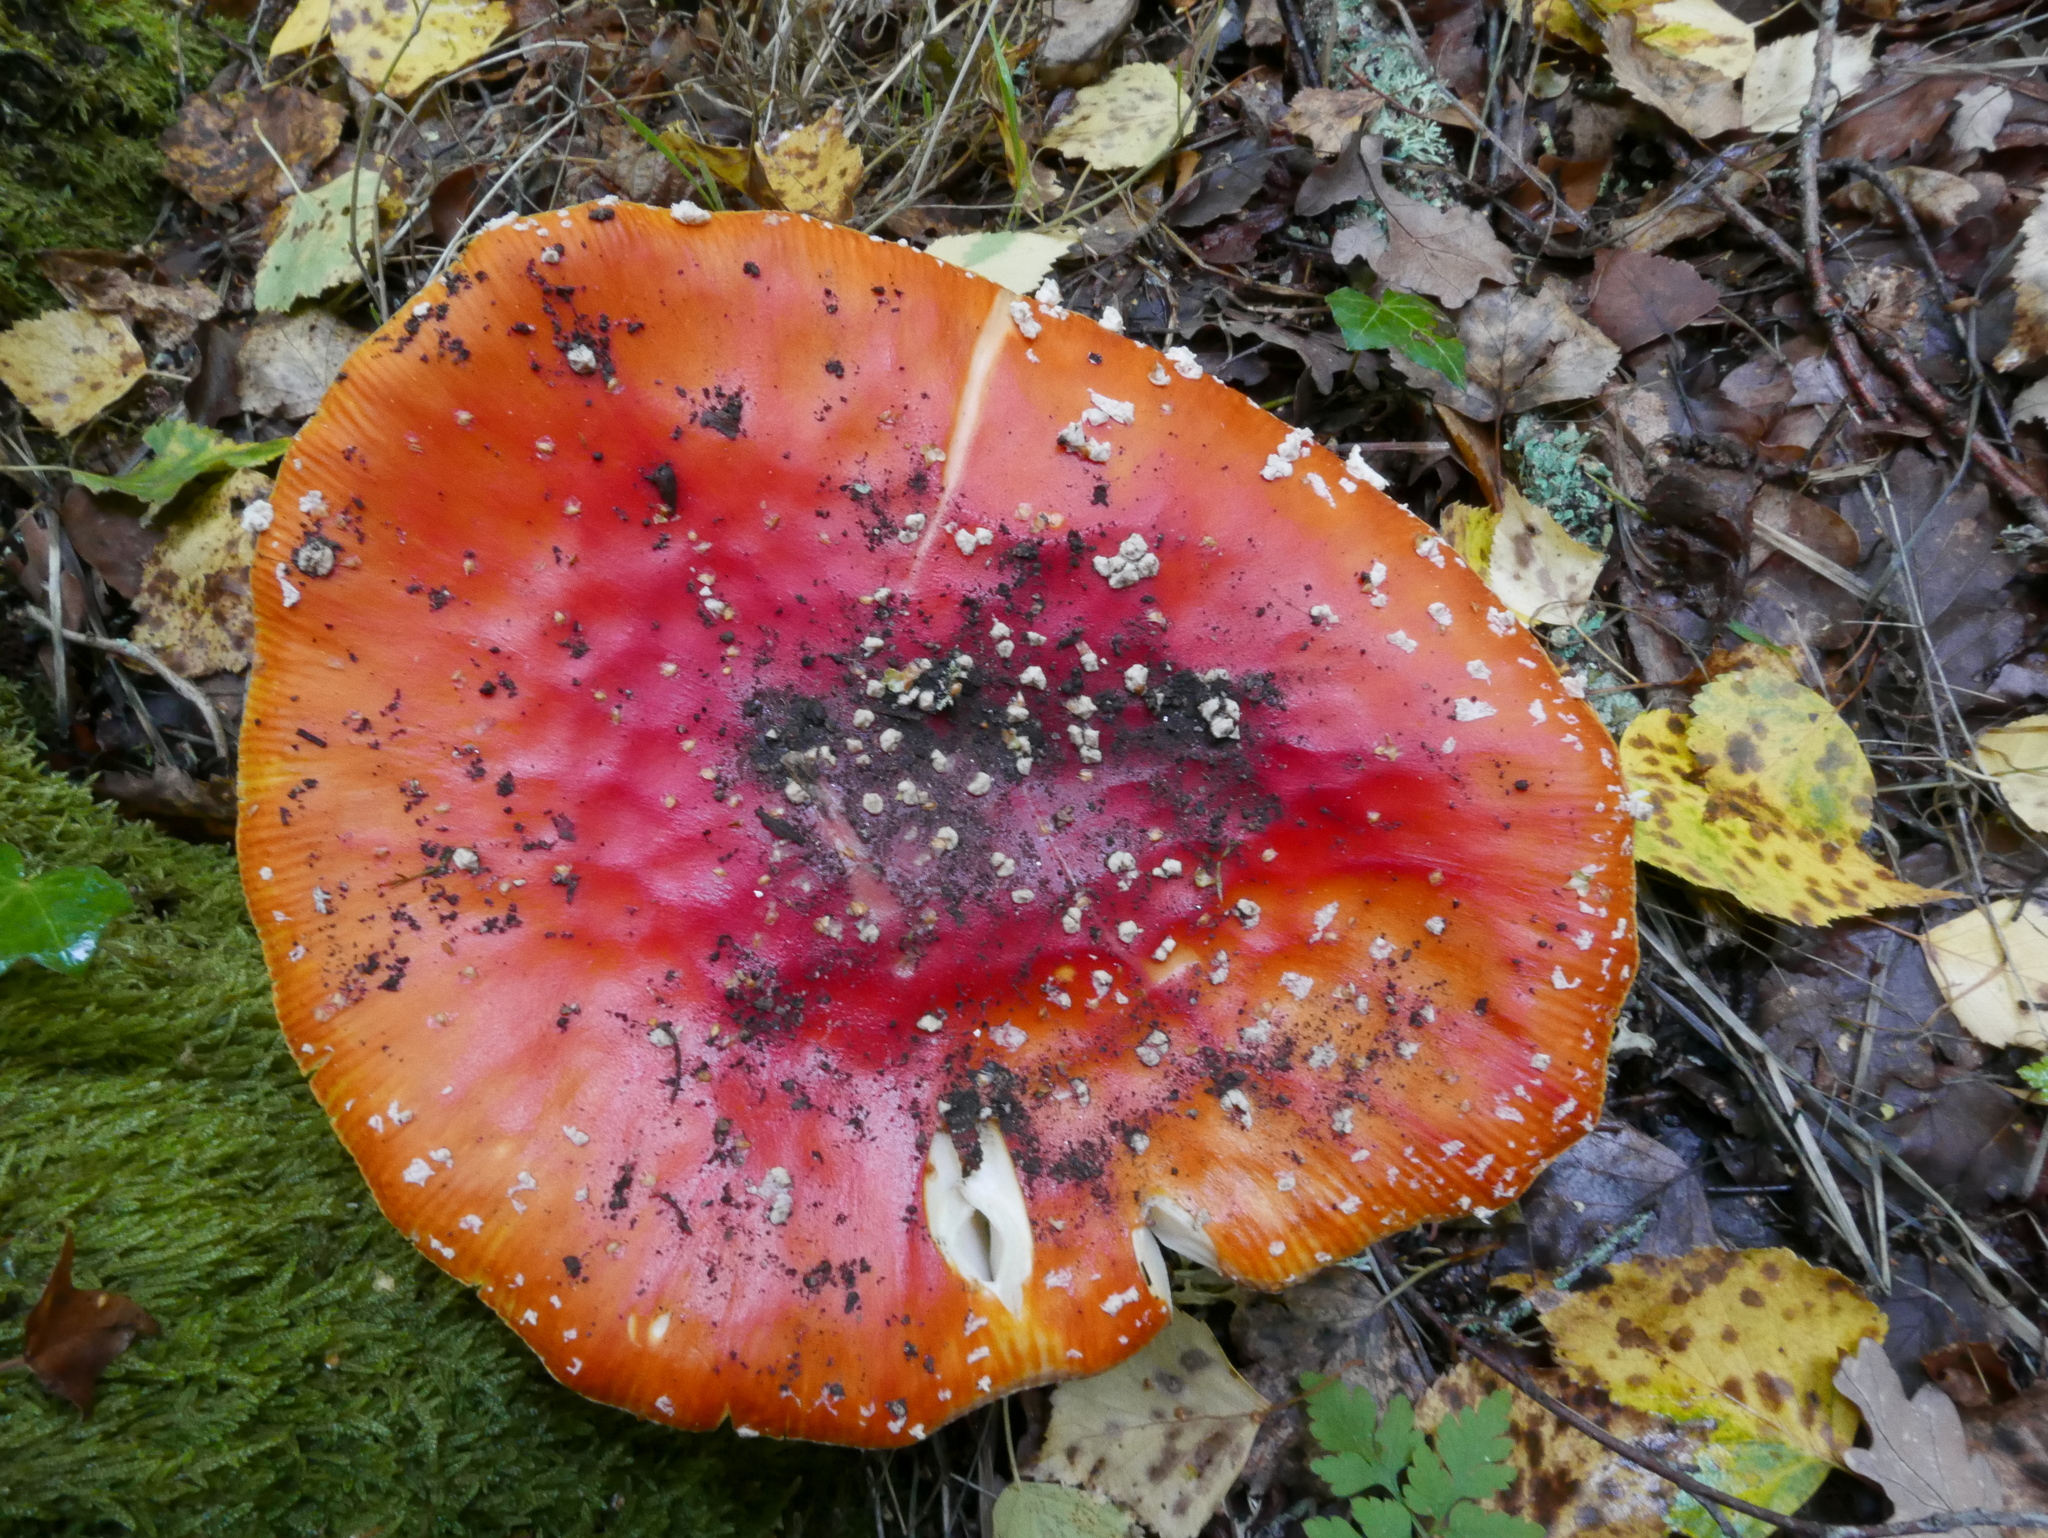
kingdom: Fungi
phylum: Basidiomycota
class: Agaricomycetes
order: Agaricales
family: Amanitaceae
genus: Amanita
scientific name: Amanita muscaria
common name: Fly agaric
